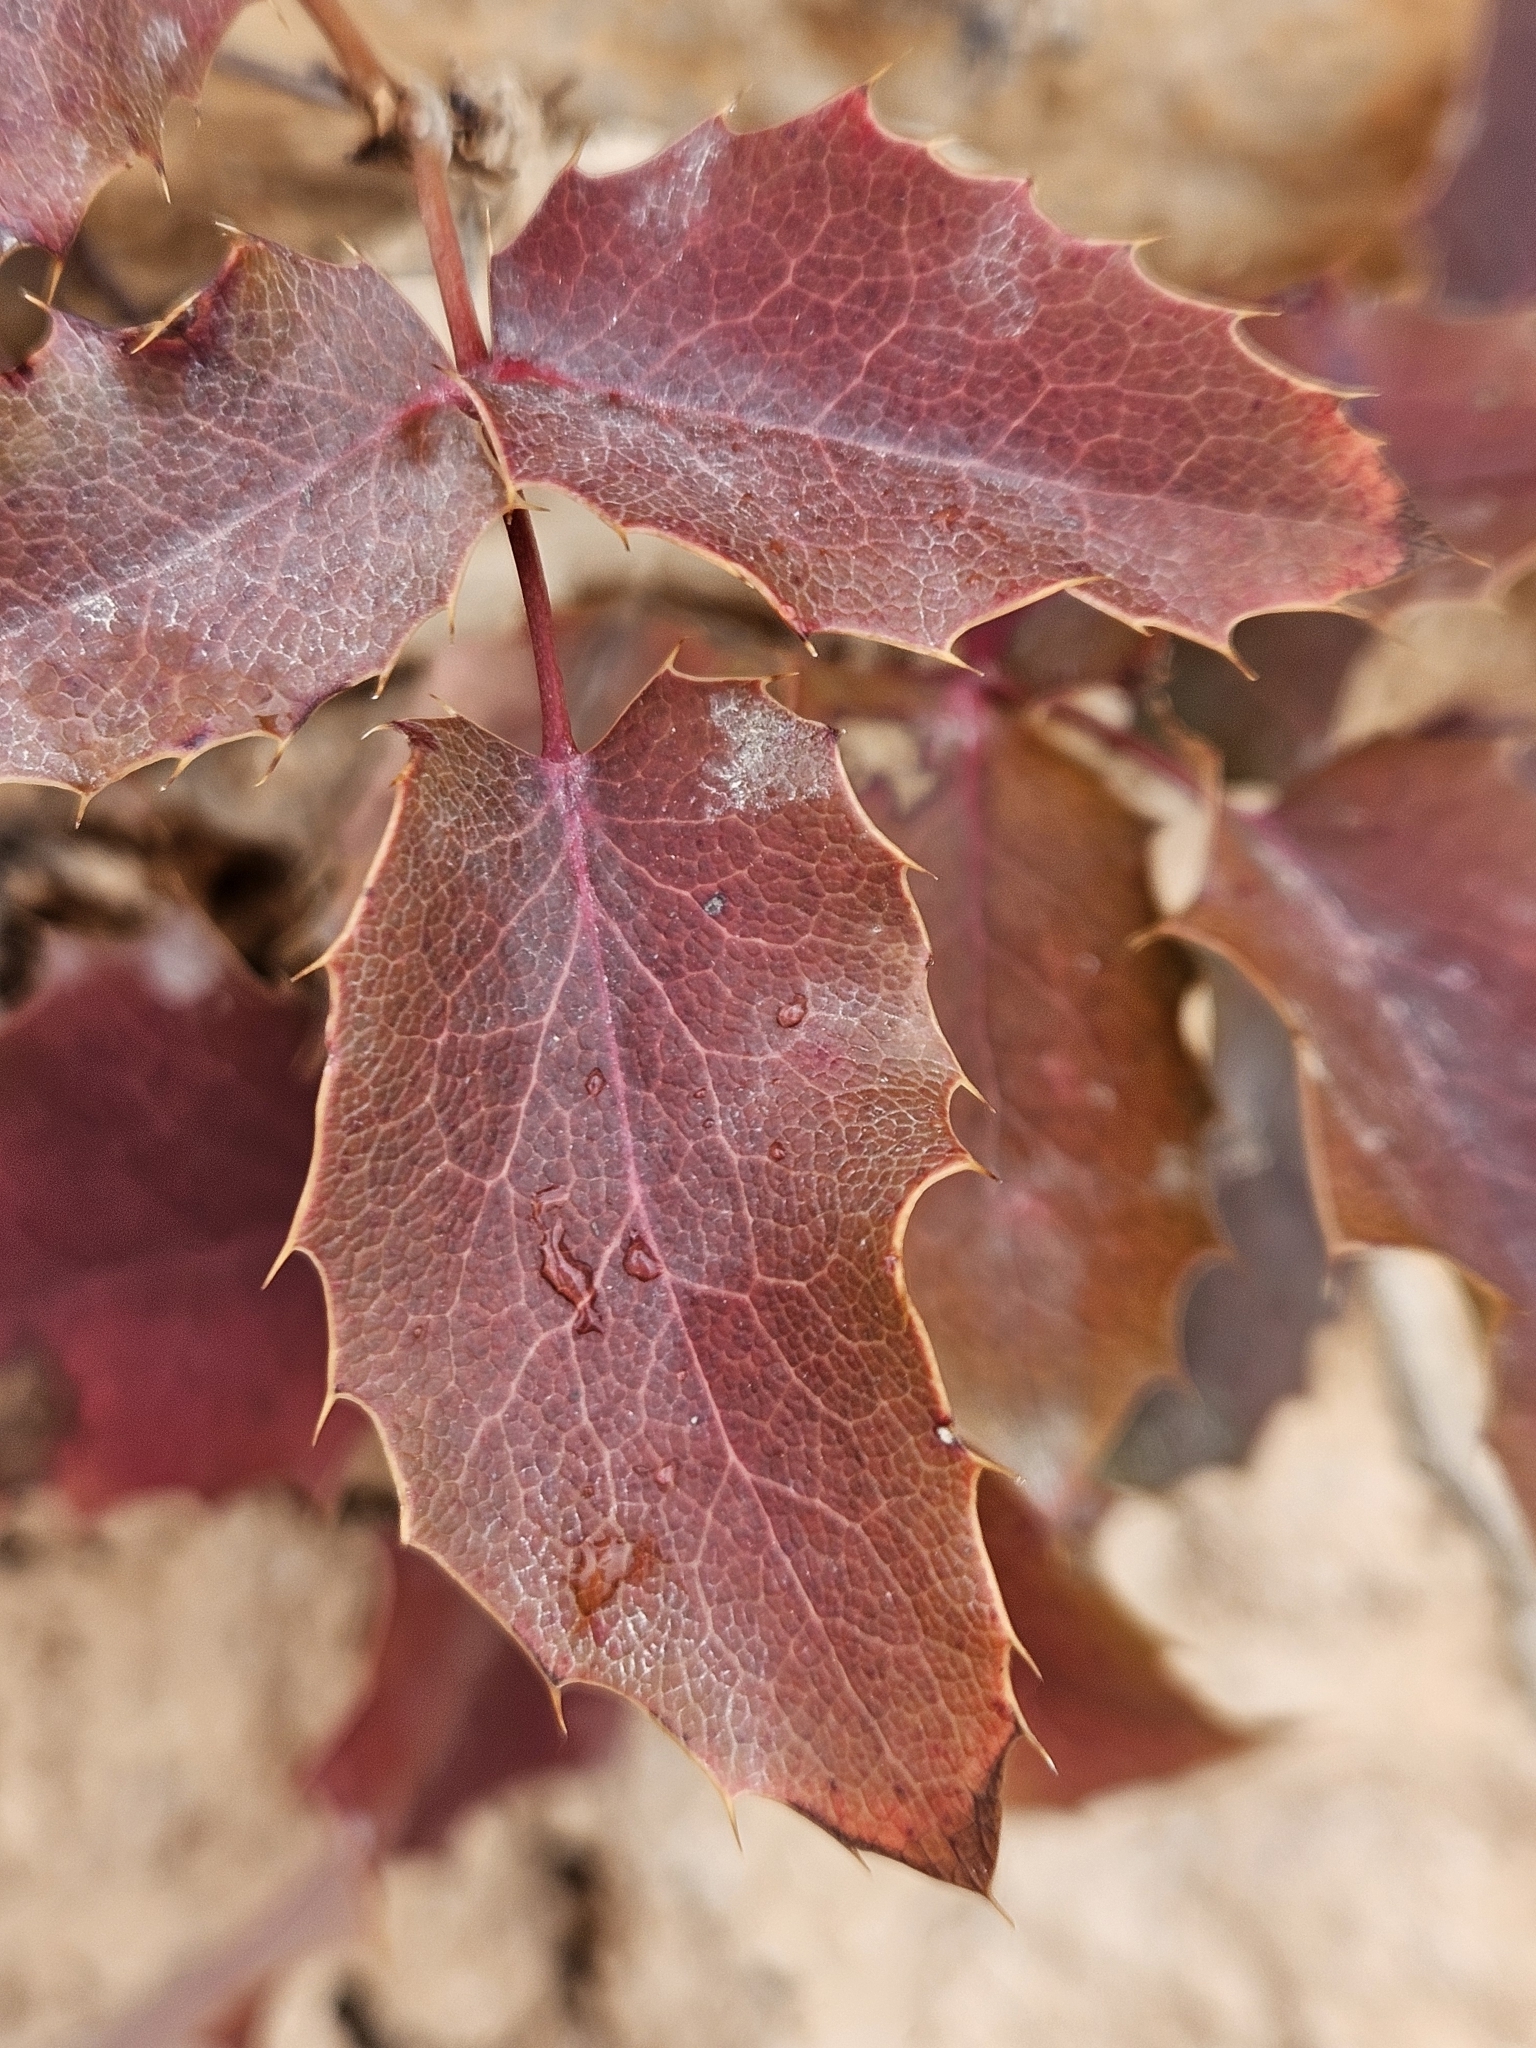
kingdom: Plantae
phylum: Tracheophyta
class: Magnoliopsida
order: Ranunculales
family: Berberidaceae
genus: Mahonia
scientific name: Mahonia repens
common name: Creeping oregon-grape
